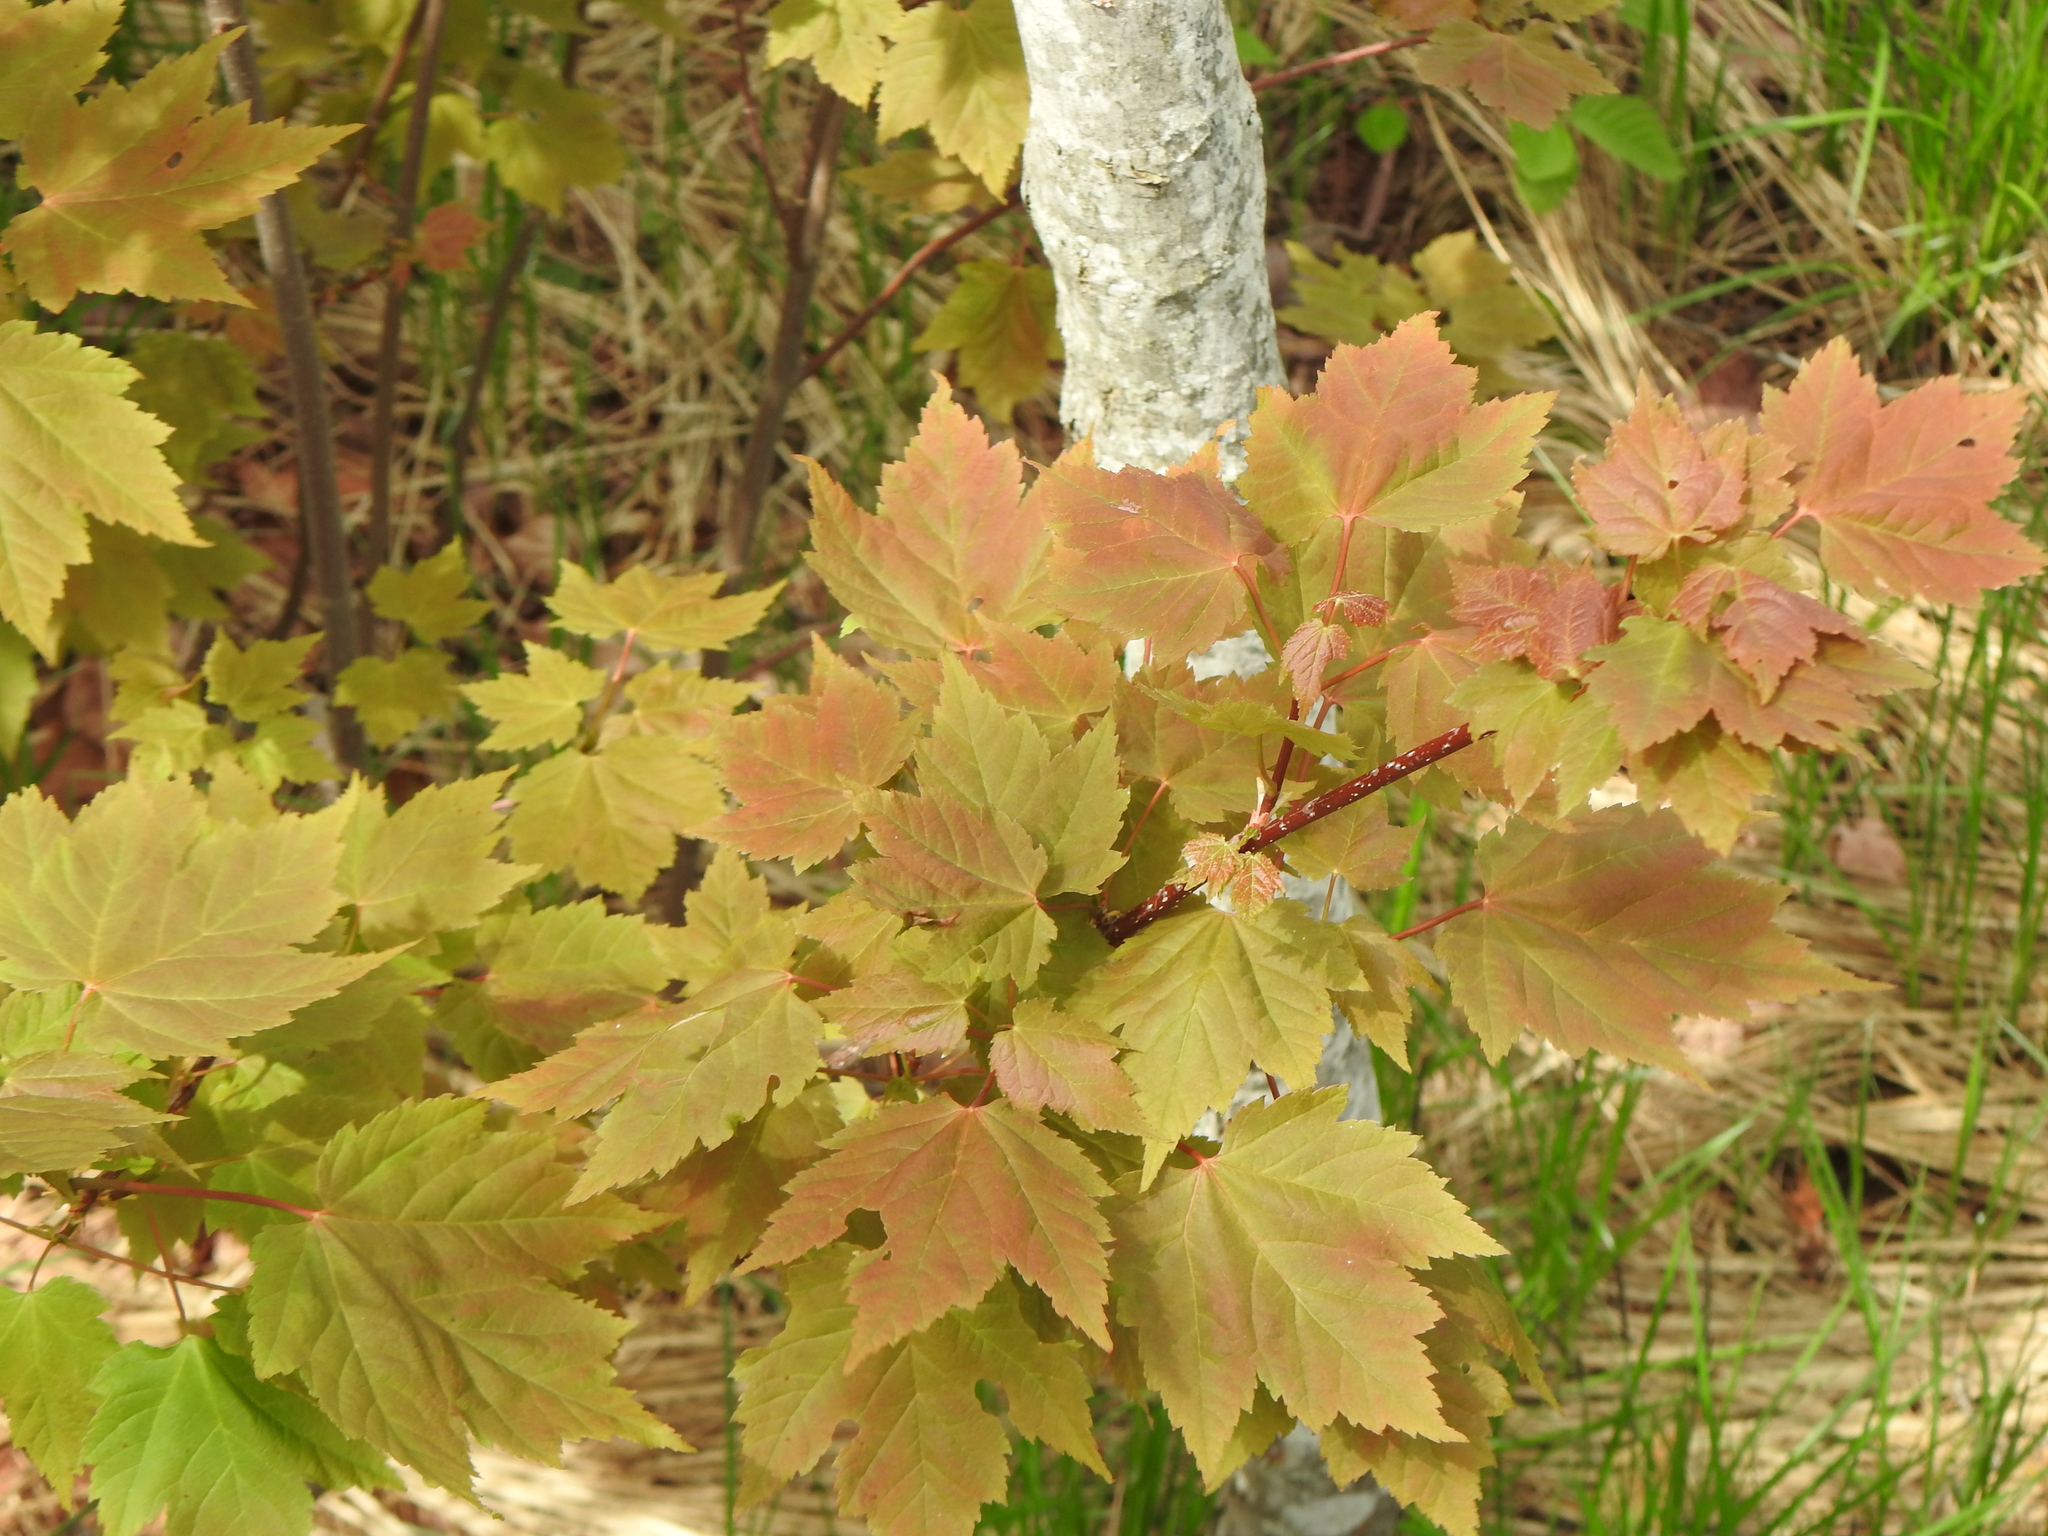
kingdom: Plantae
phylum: Tracheophyta
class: Magnoliopsida
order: Sapindales
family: Sapindaceae
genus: Acer
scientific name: Acer rubrum
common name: Red maple
